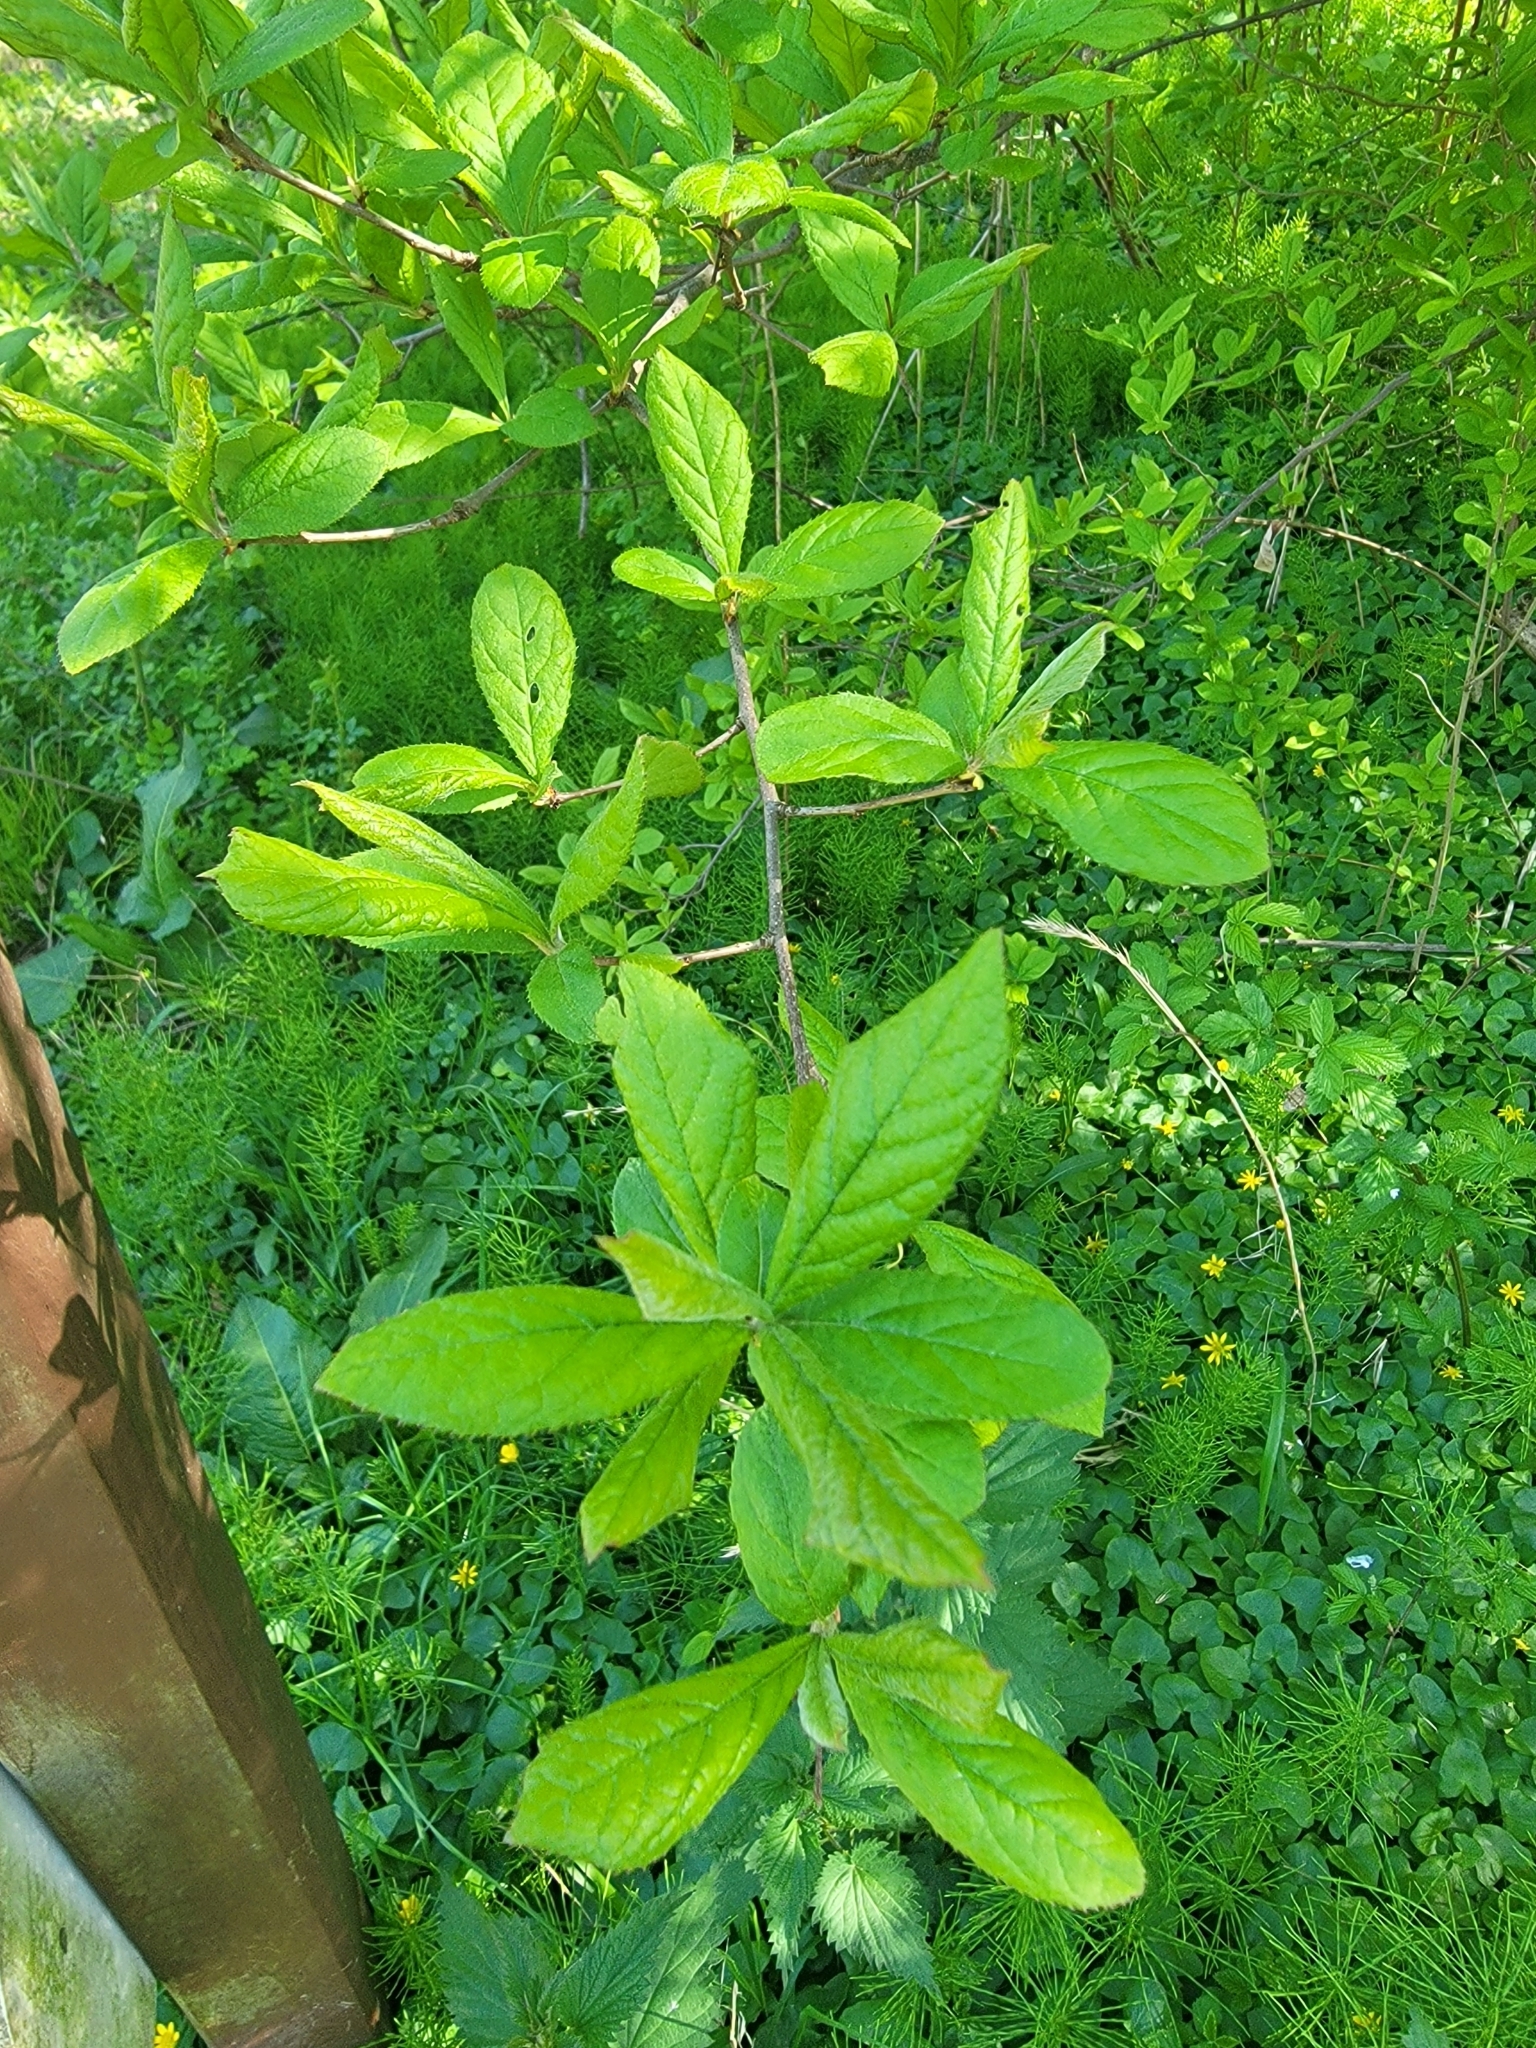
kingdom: Plantae
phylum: Tracheophyta
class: Magnoliopsida
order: Rosales
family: Rosaceae
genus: Pourthiaea
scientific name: Pourthiaea villosa
